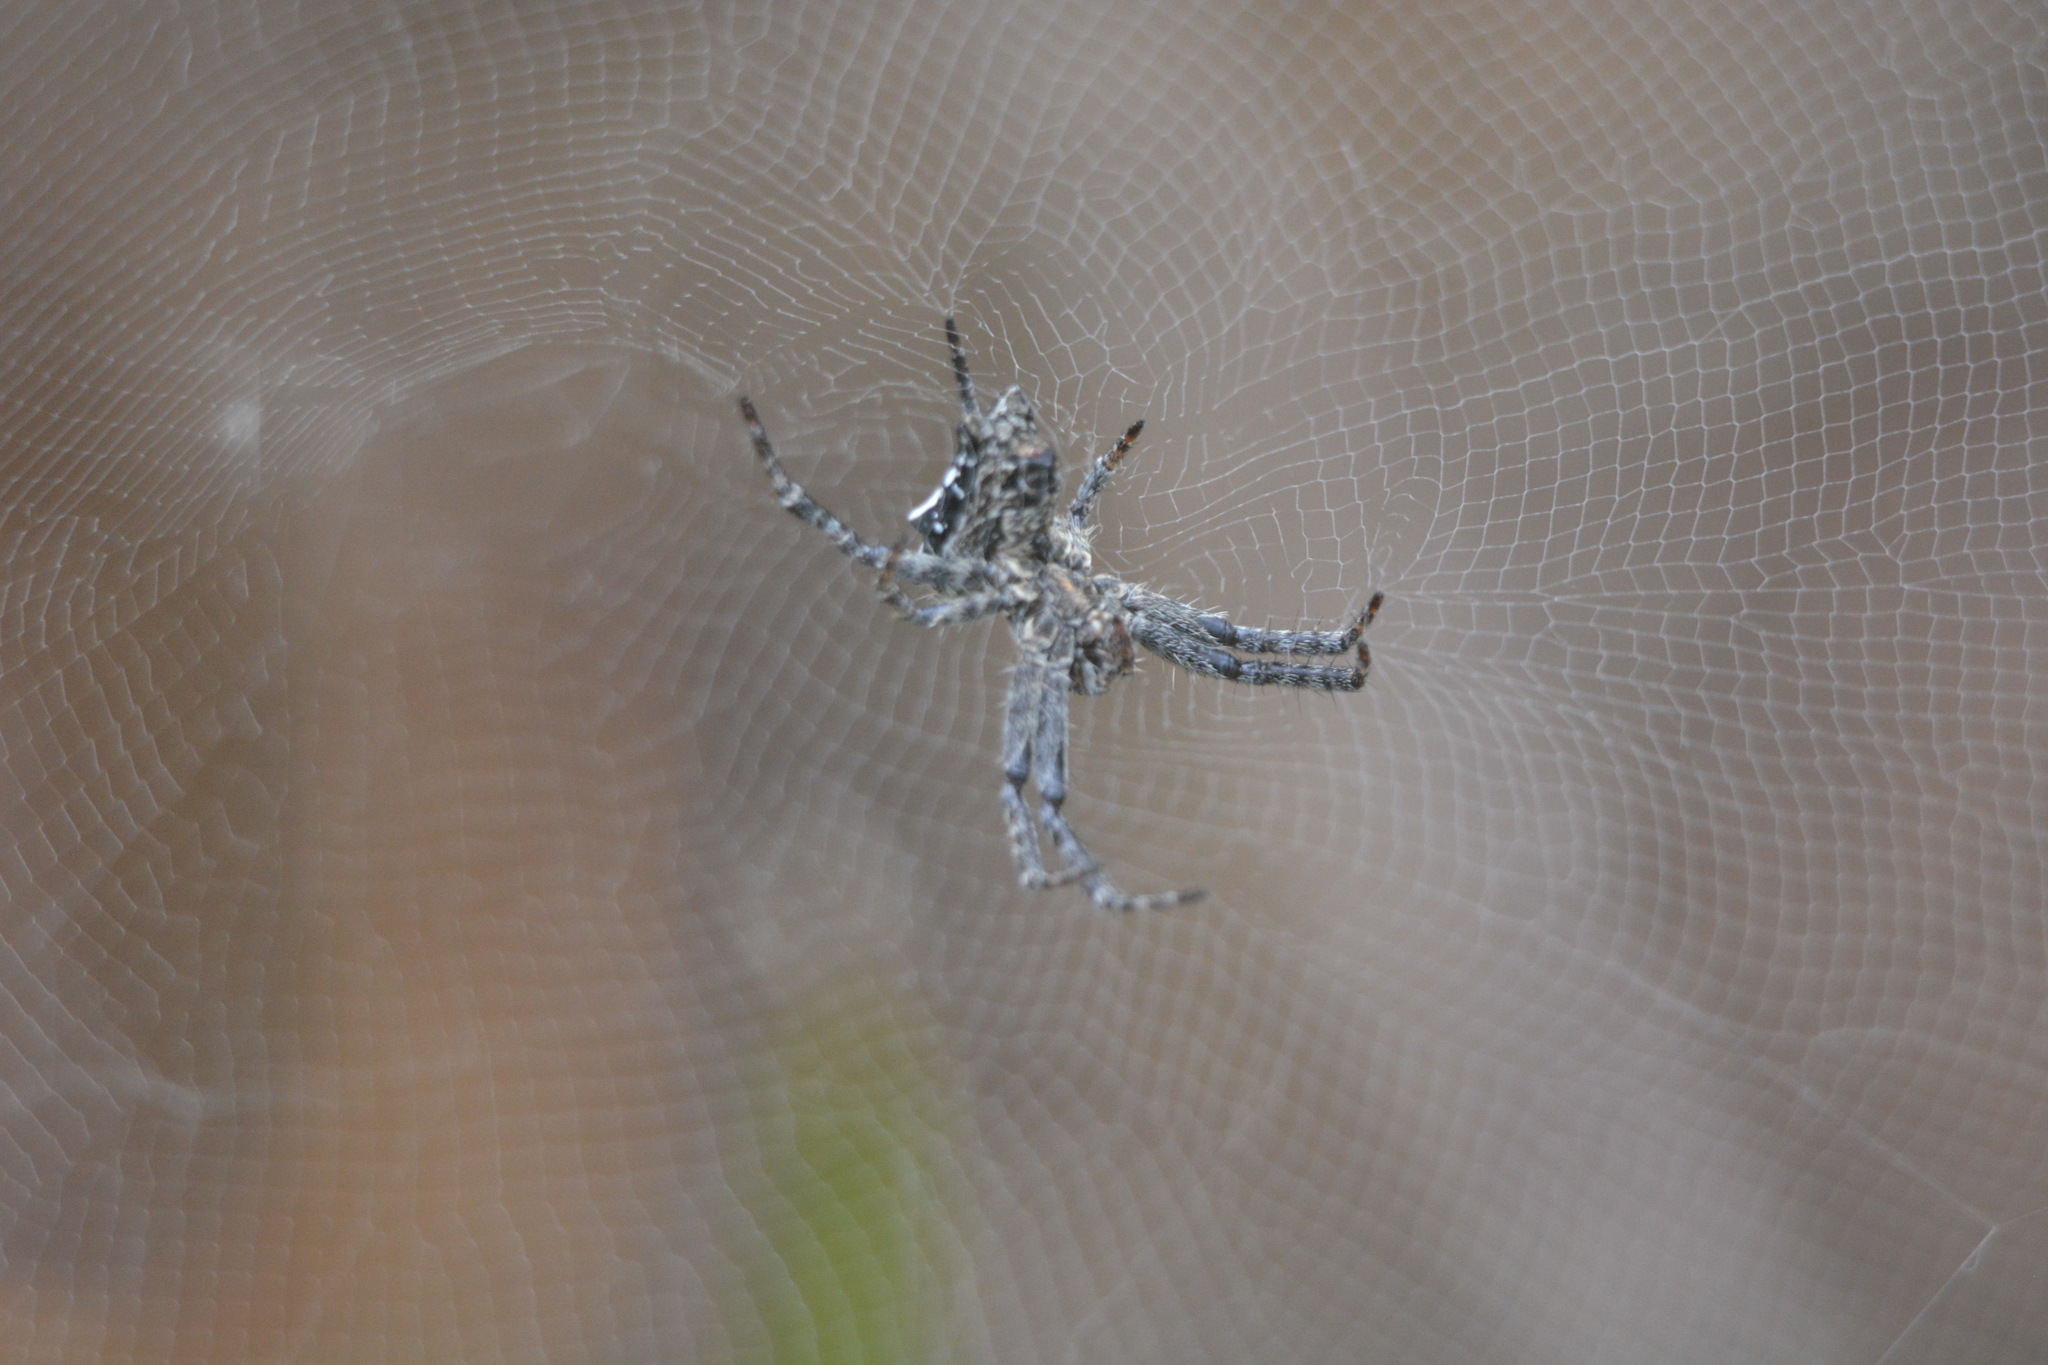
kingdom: Animalia
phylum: Arthropoda
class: Arachnida
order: Araneae
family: Araneidae
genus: Cyrtophora
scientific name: Cyrtophora citricola
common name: Orb weavers
